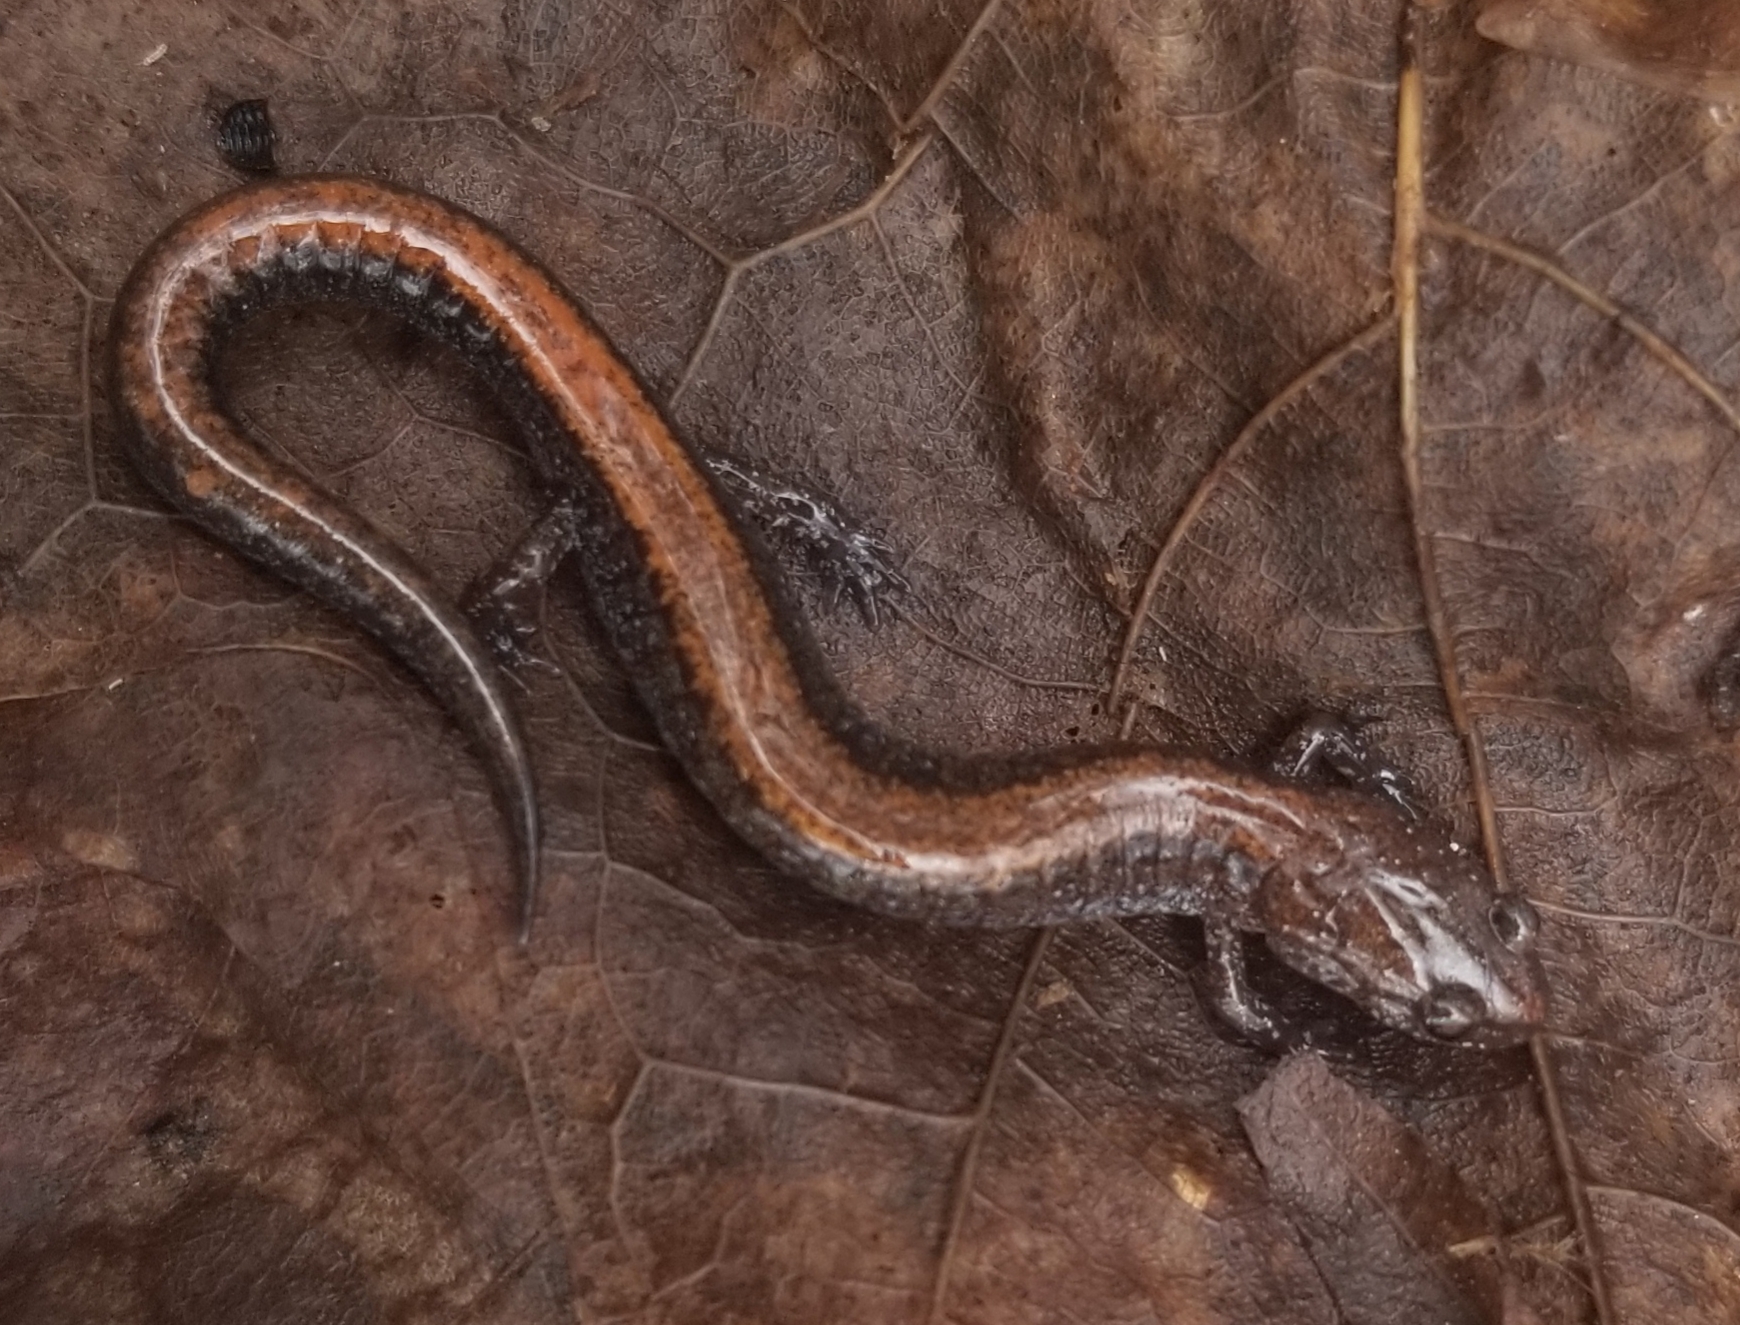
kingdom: Animalia
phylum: Chordata
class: Amphibia
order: Caudata
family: Plethodontidae
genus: Plethodon
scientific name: Plethodon cinereus
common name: Redback salamander
